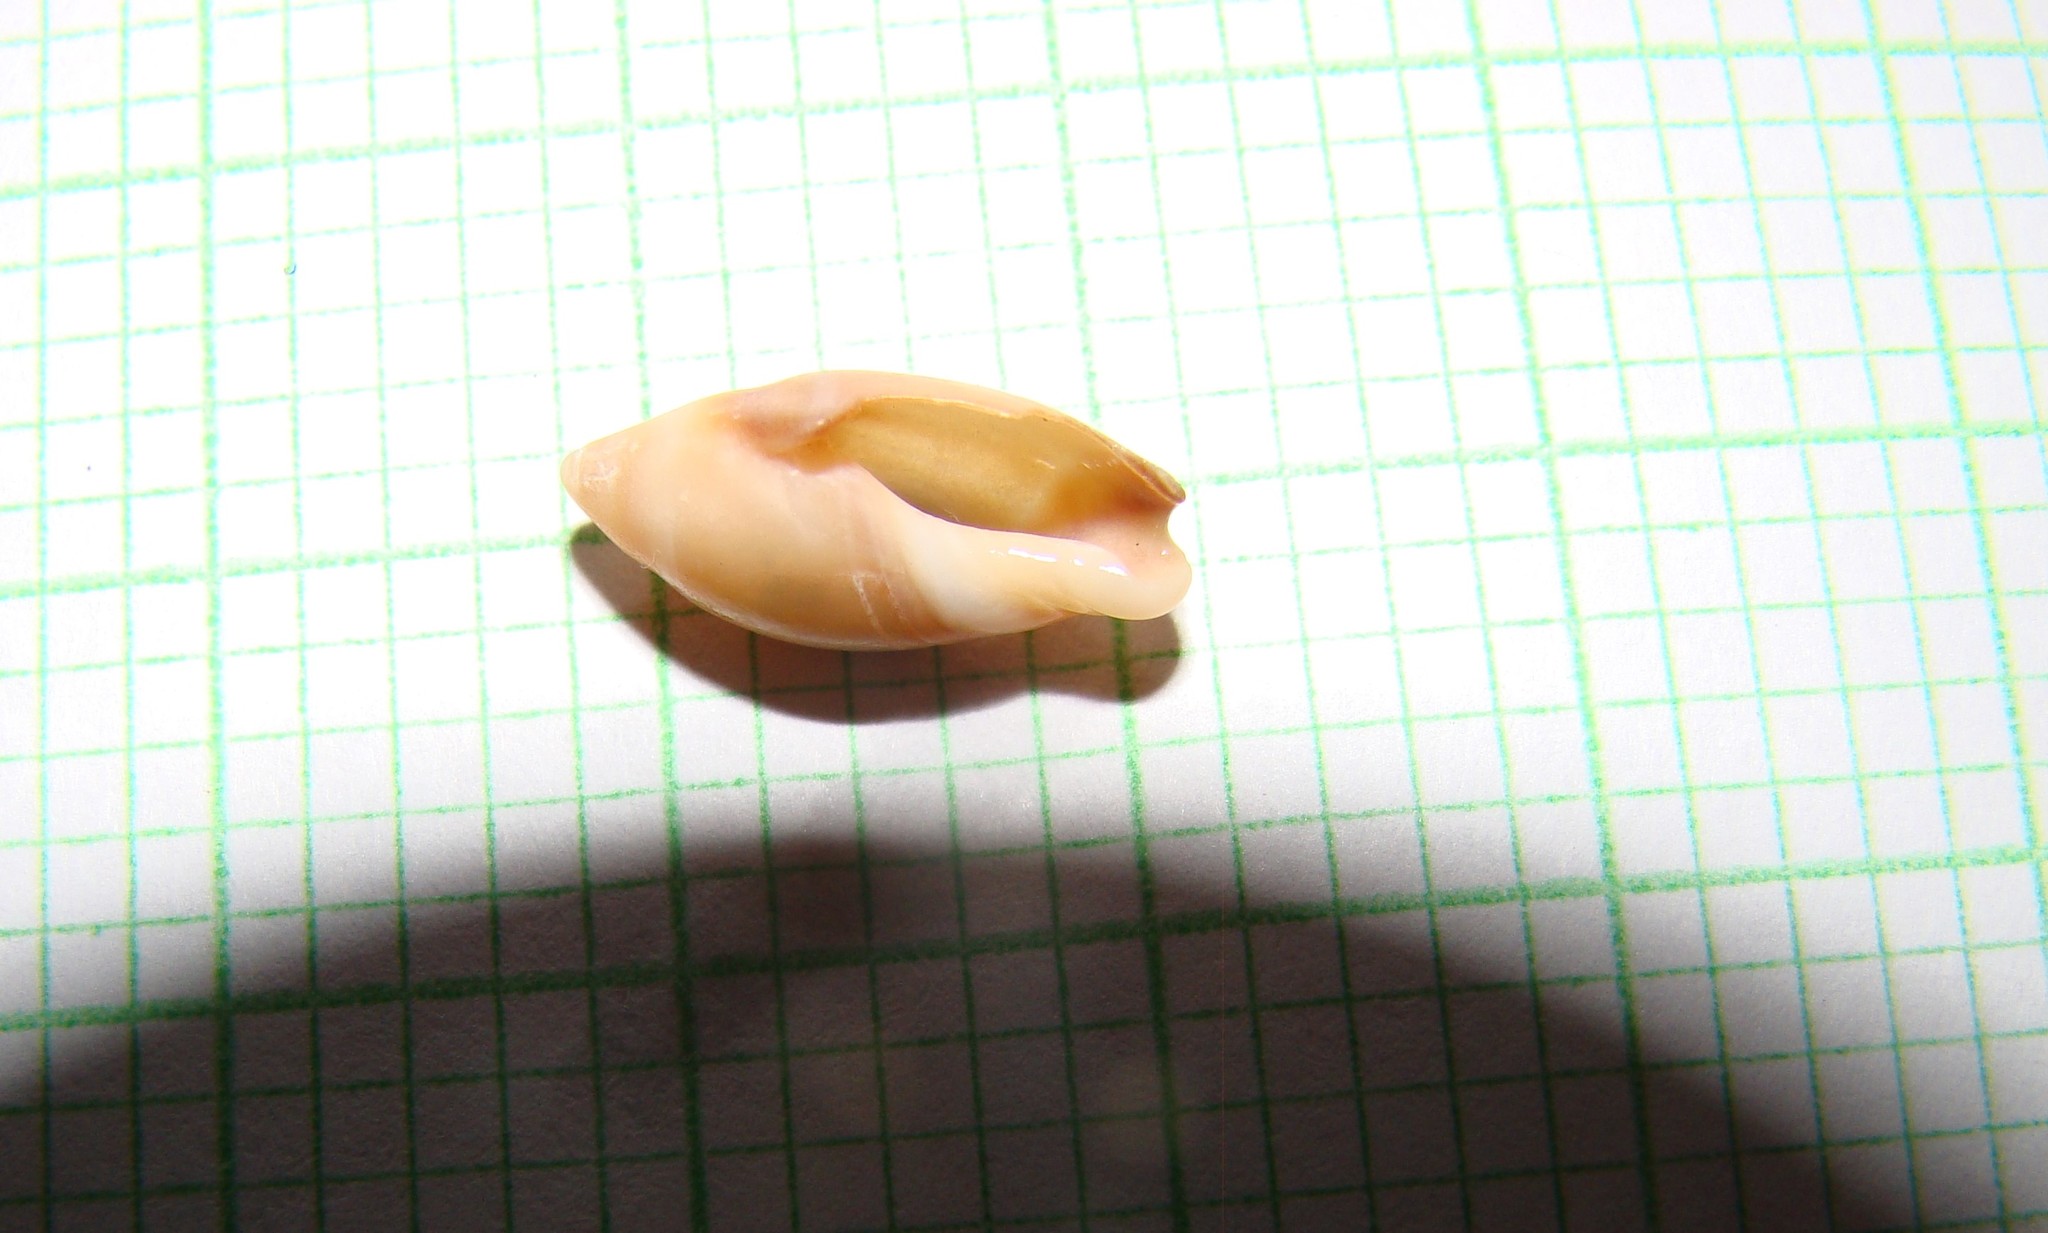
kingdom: Animalia
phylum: Mollusca
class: Gastropoda
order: Neogastropoda
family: Ancillariidae
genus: Amalda
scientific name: Amalda australis
